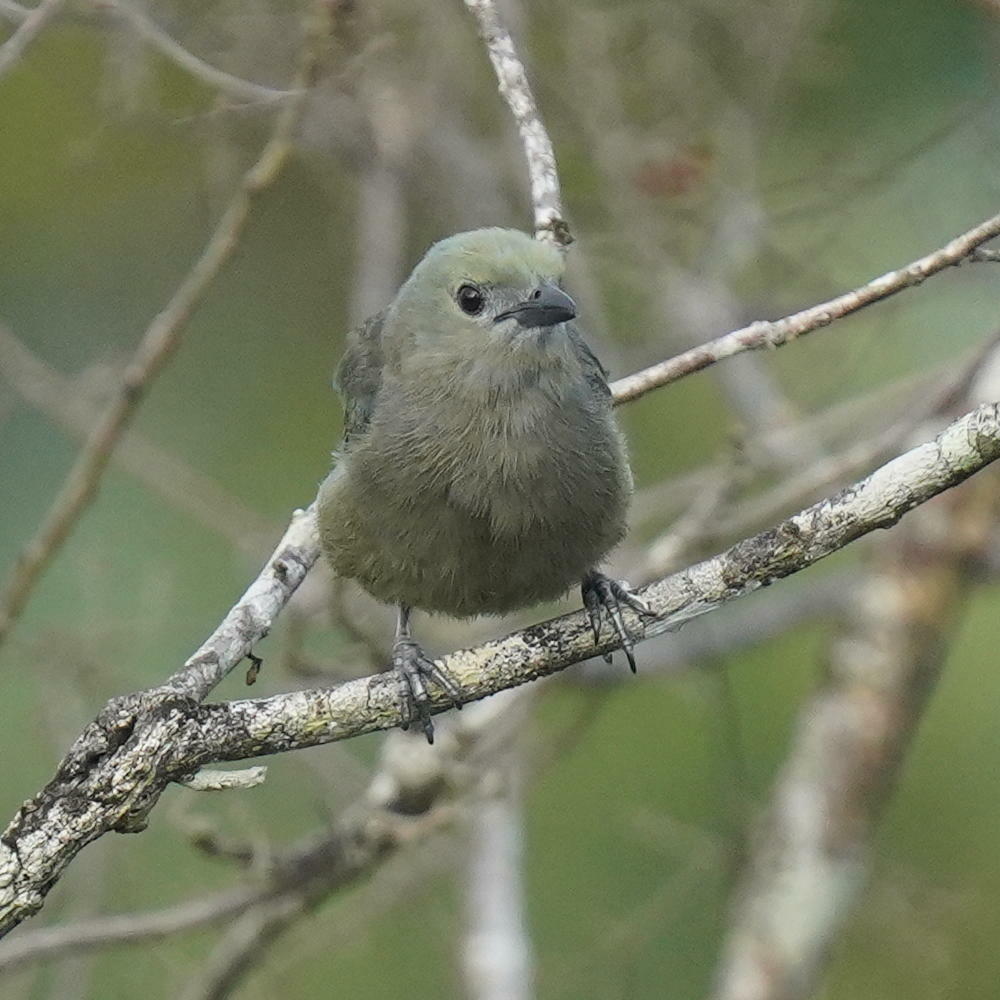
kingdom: Animalia
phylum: Chordata
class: Aves
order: Passeriformes
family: Thraupidae
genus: Thraupis
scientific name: Thraupis palmarum
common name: Palm tanager
